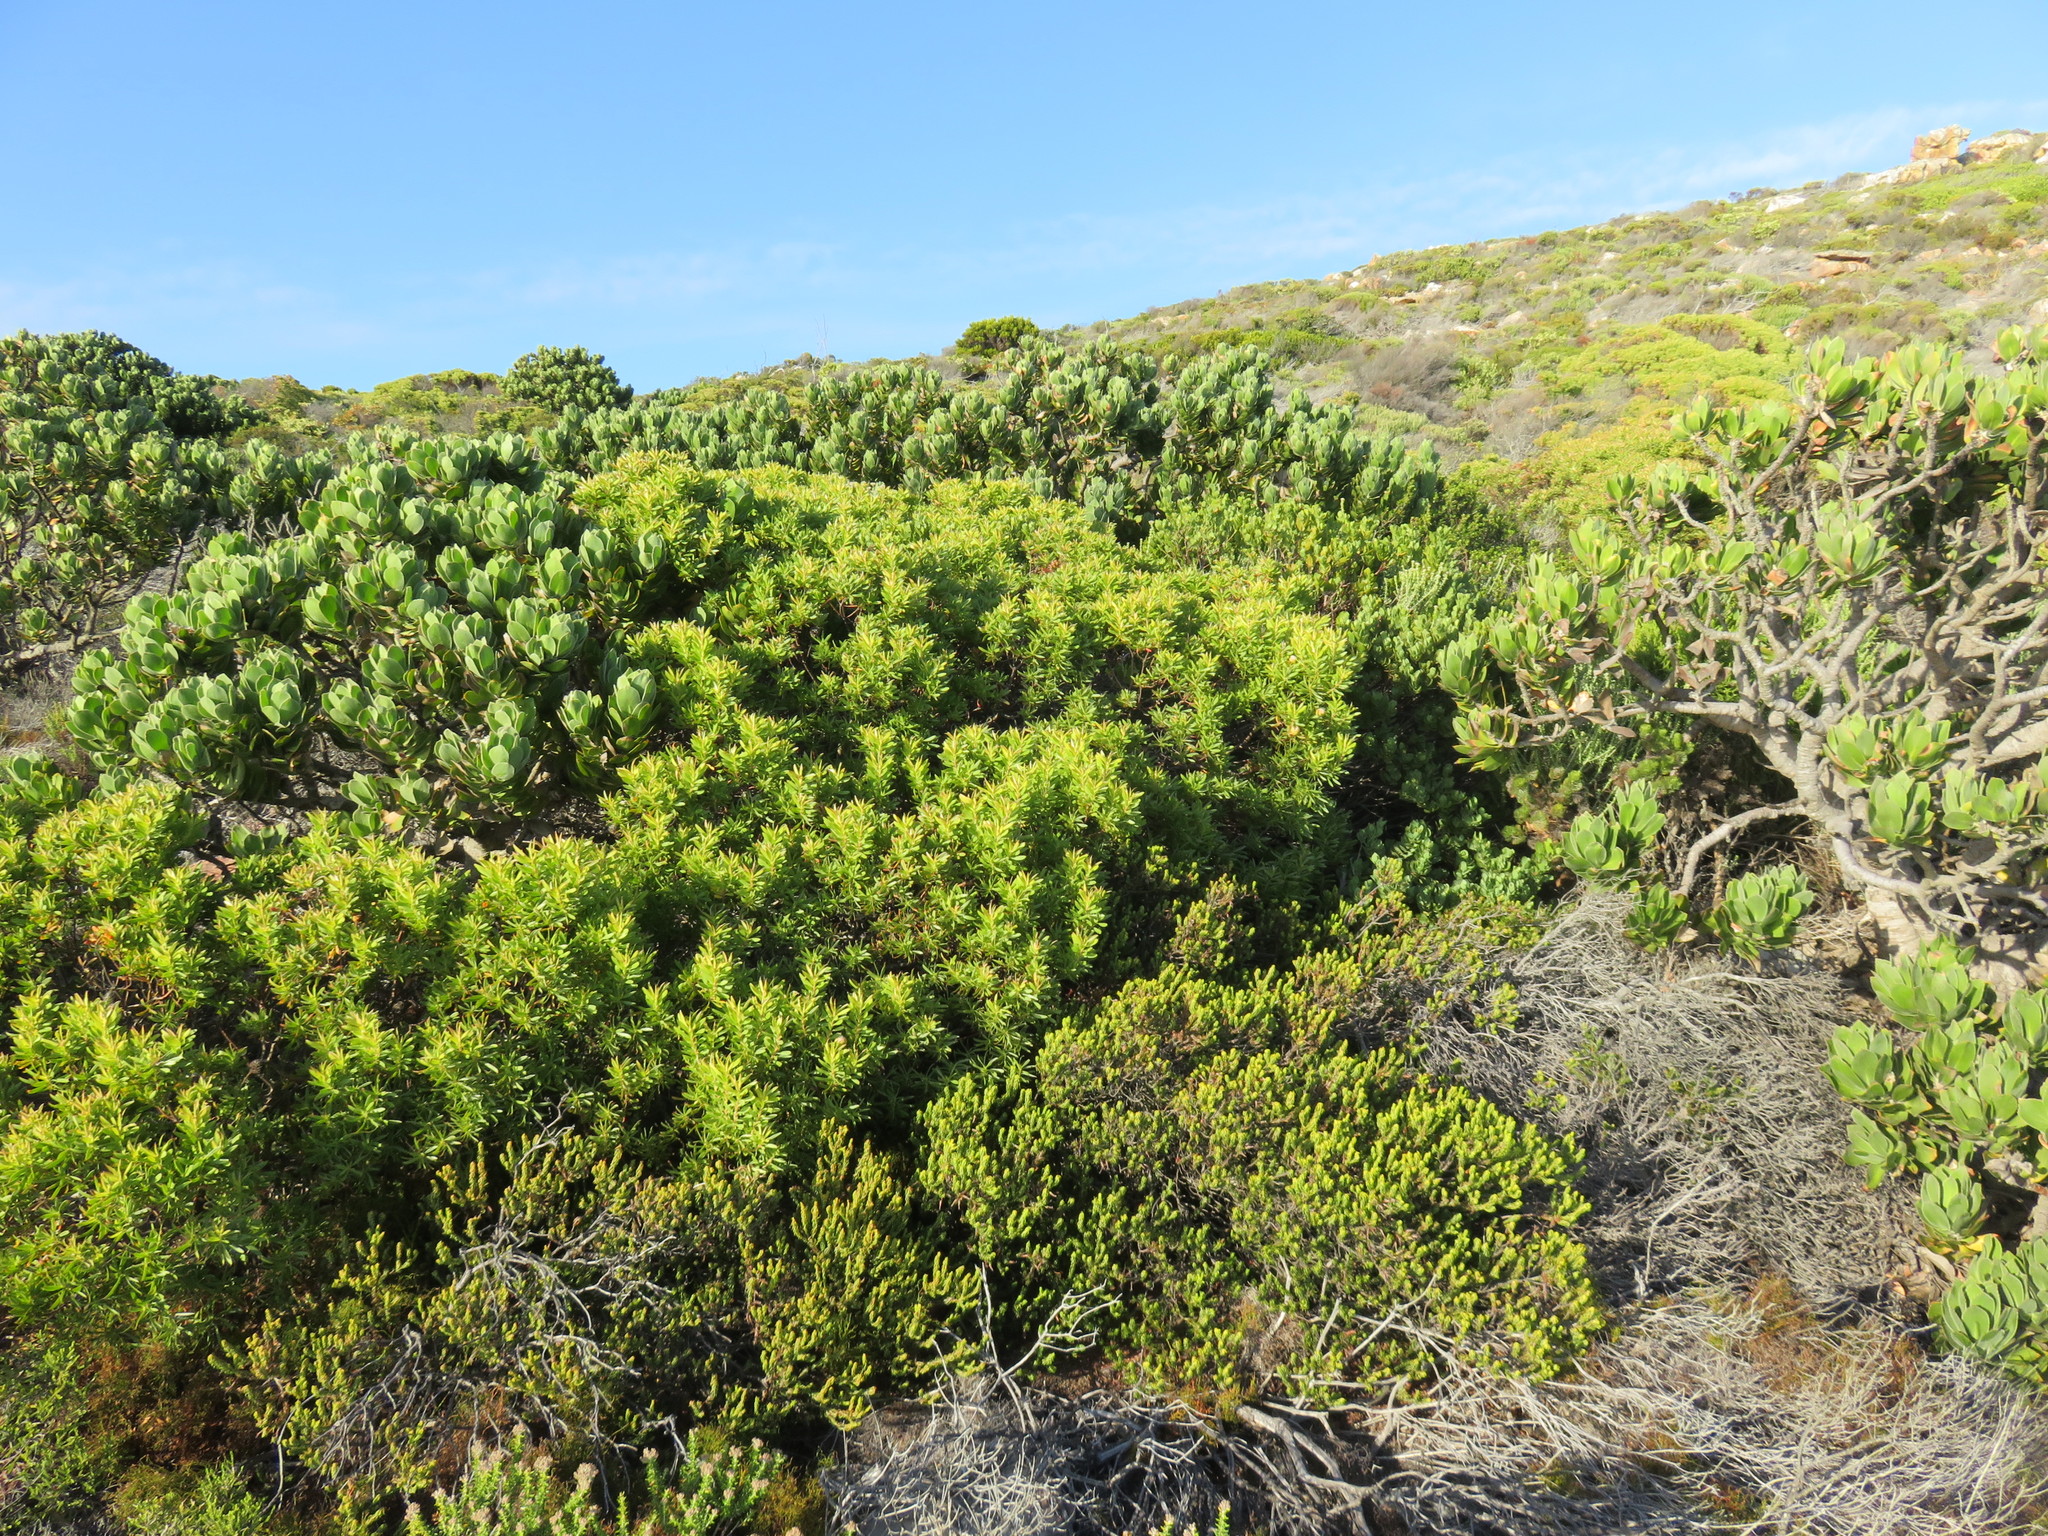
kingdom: Plantae
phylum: Tracheophyta
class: Magnoliopsida
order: Proteales
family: Proteaceae
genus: Leucadendron
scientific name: Leucadendron xanthoconus
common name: Sickle-leaf conebush
